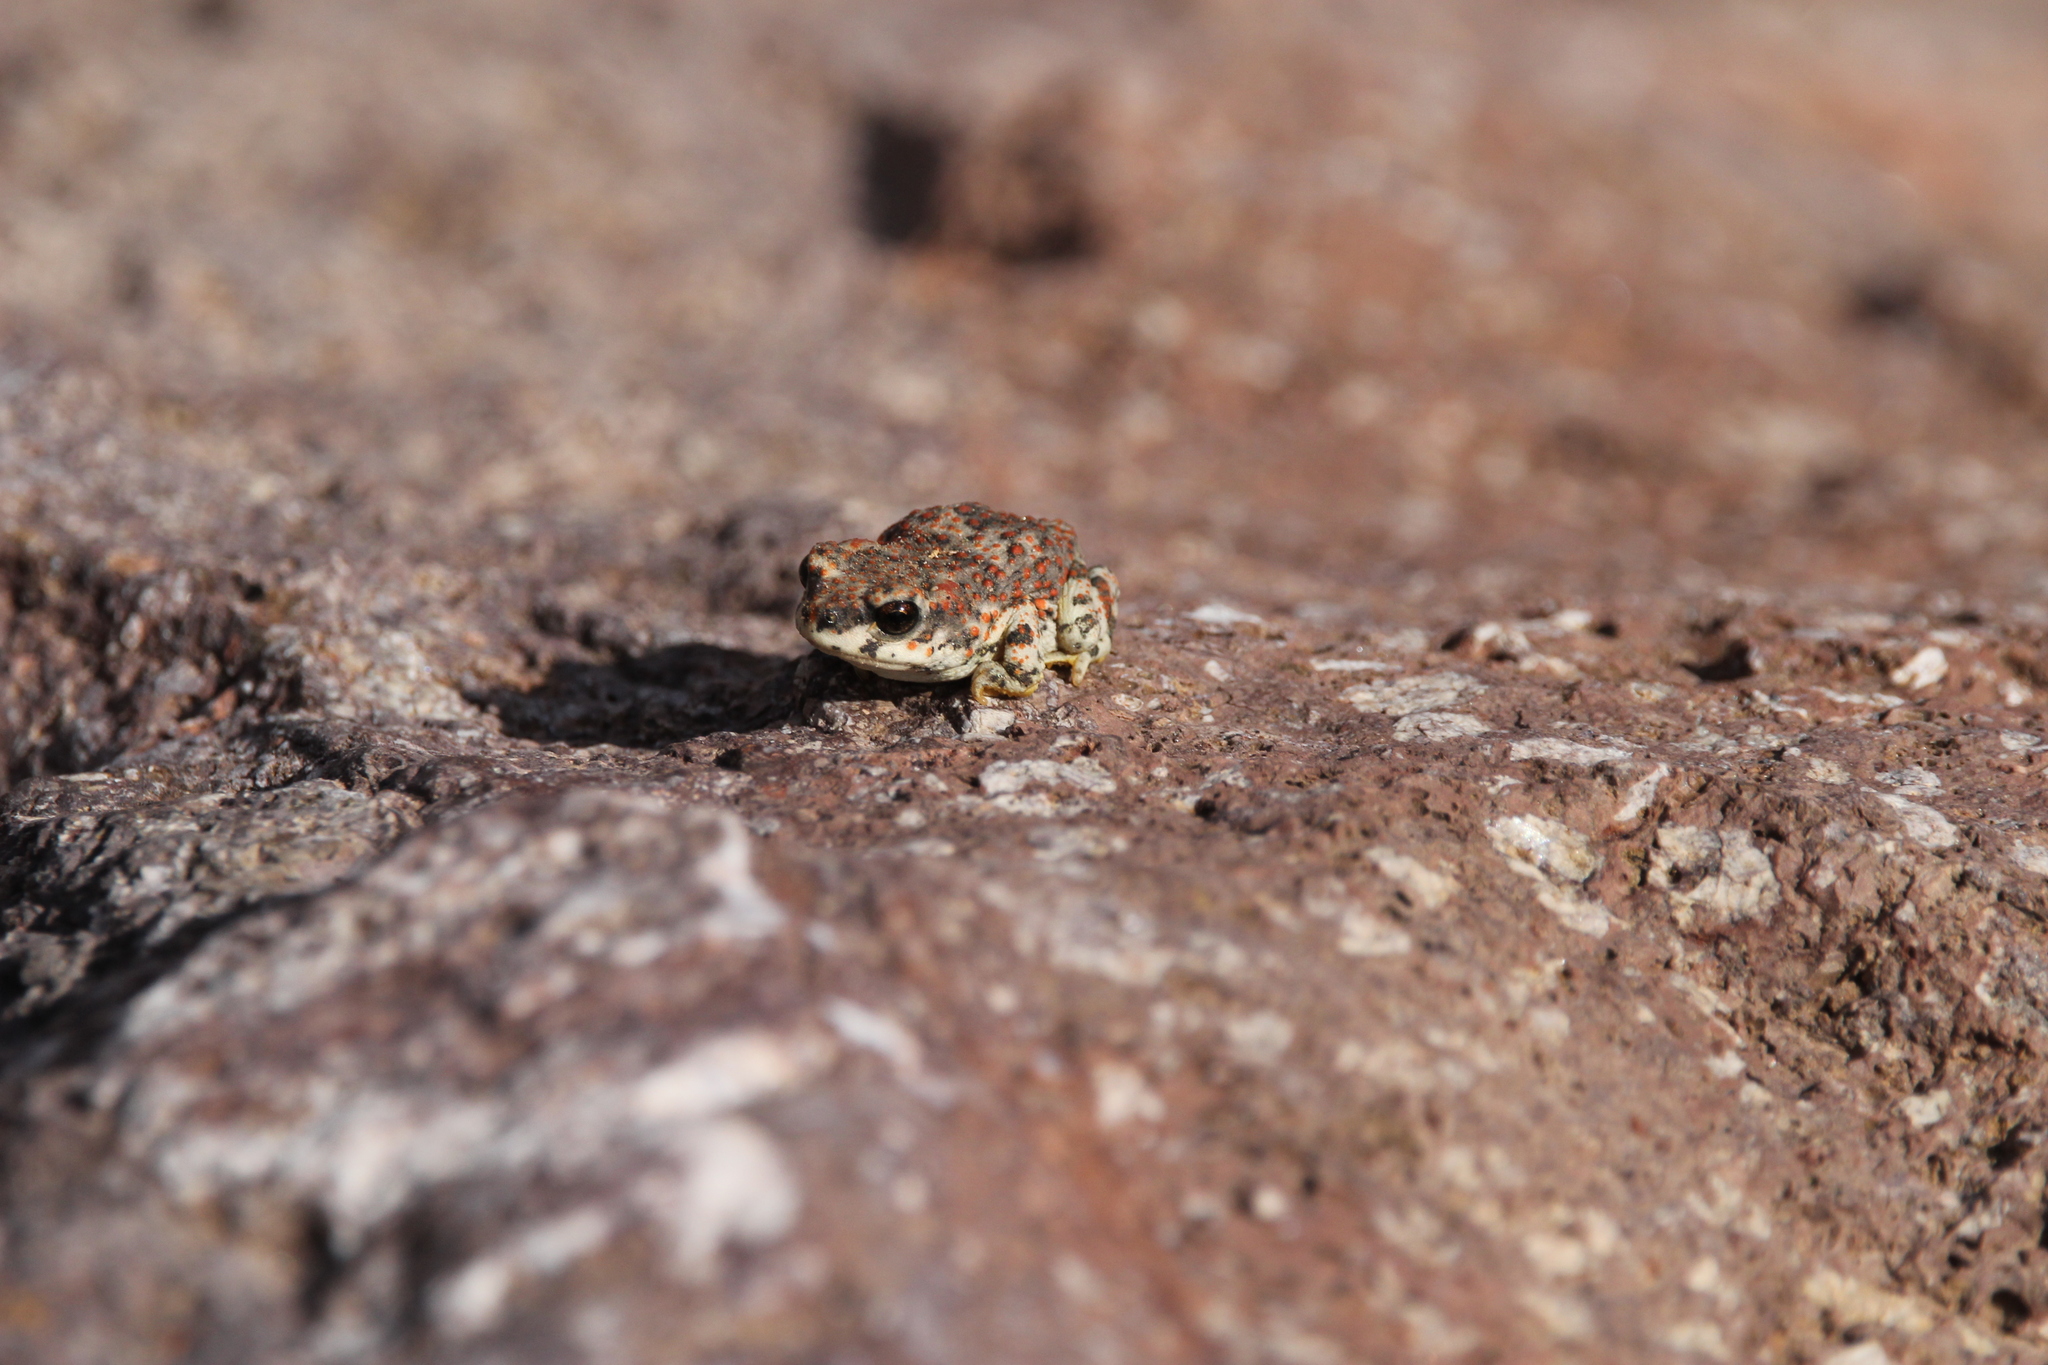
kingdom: Animalia
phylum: Chordata
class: Amphibia
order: Anura
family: Bufonidae
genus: Anaxyrus
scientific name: Anaxyrus punctatus
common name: Red-spotted toad
